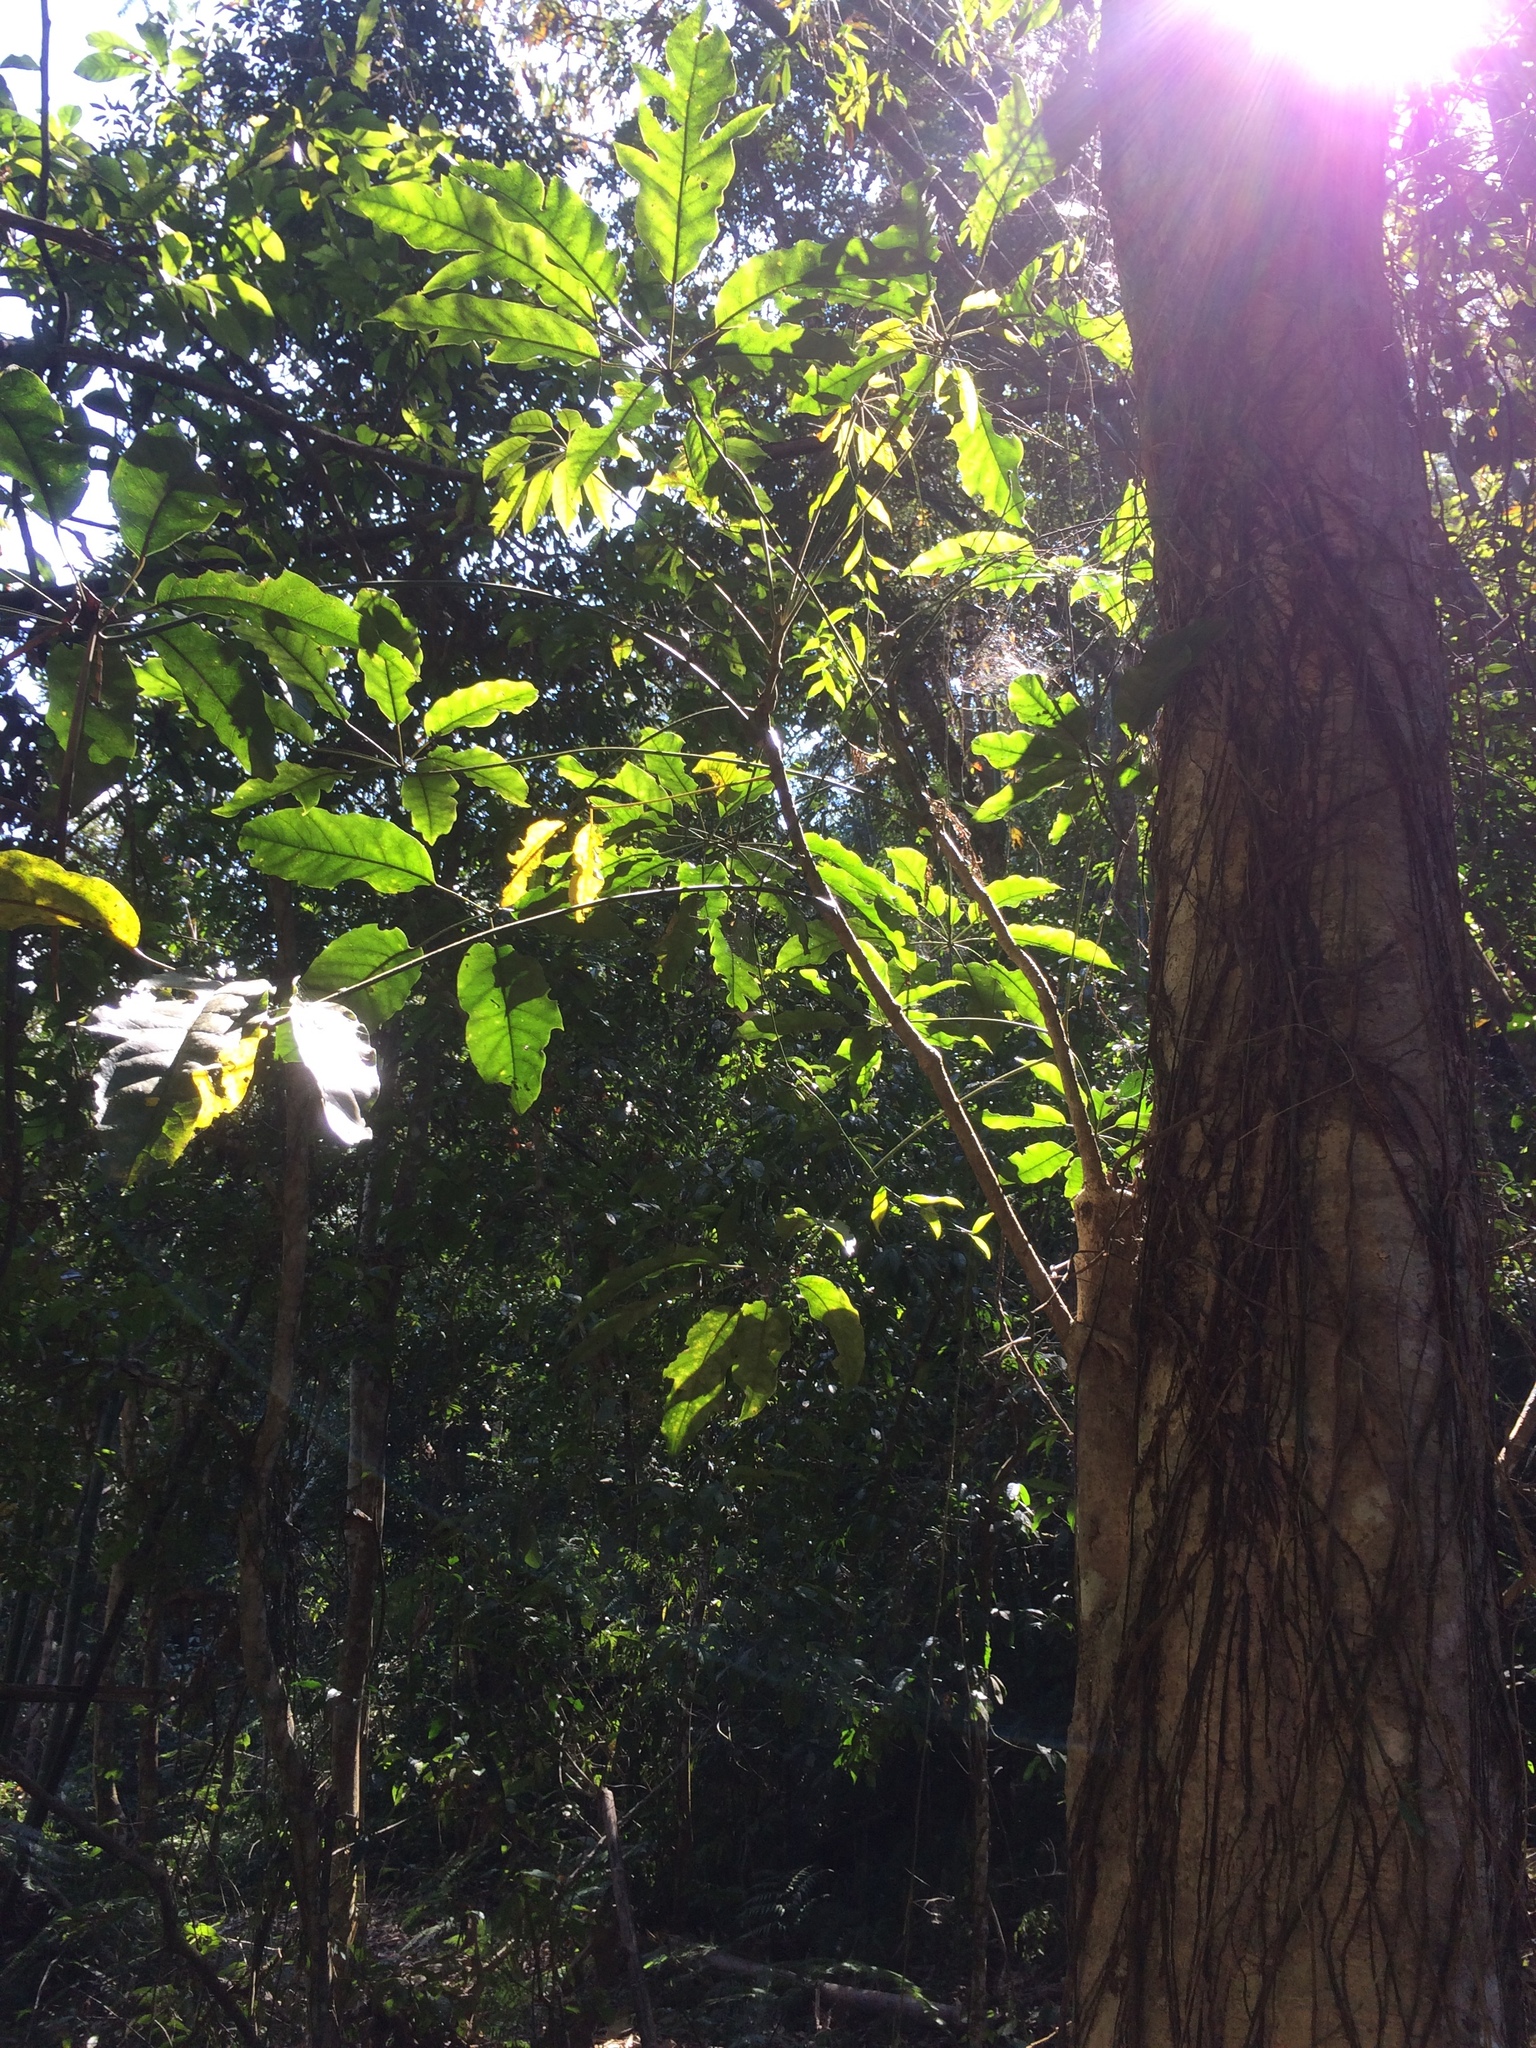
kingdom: Plantae
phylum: Tracheophyta
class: Magnoliopsida
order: Apiales
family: Araliaceae
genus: Heptapleurum
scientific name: Heptapleurum heptaphyllum
